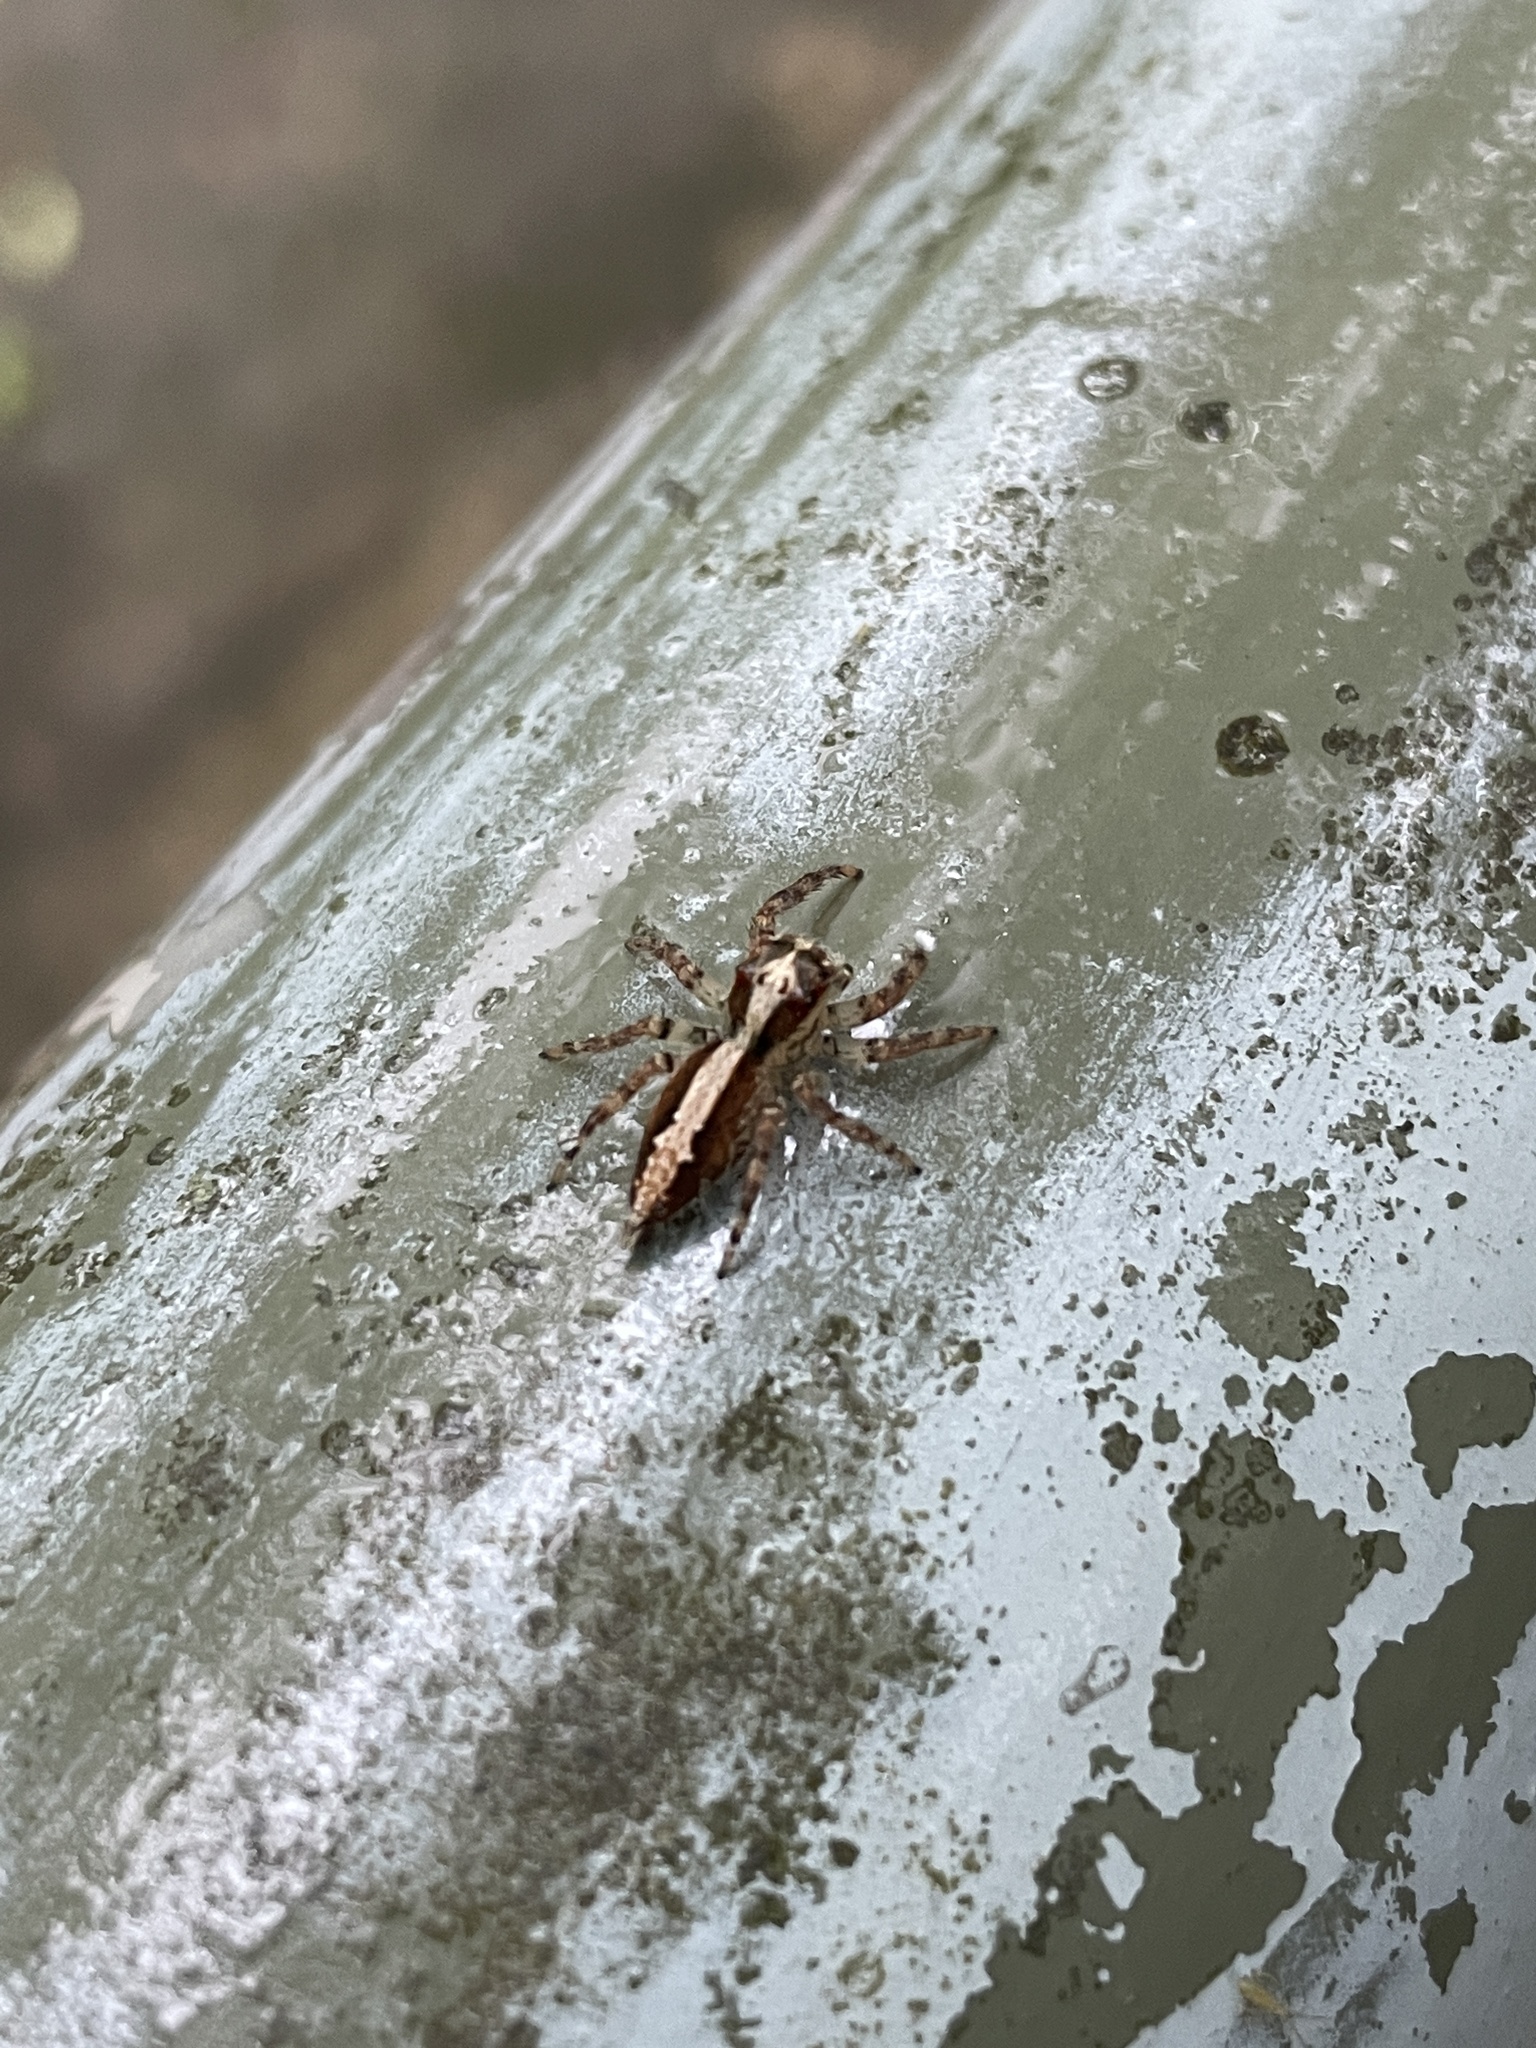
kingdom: Animalia
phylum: Arthropoda
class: Arachnida
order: Araneae
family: Salticidae
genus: Pancorius
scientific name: Pancorius crassipes
